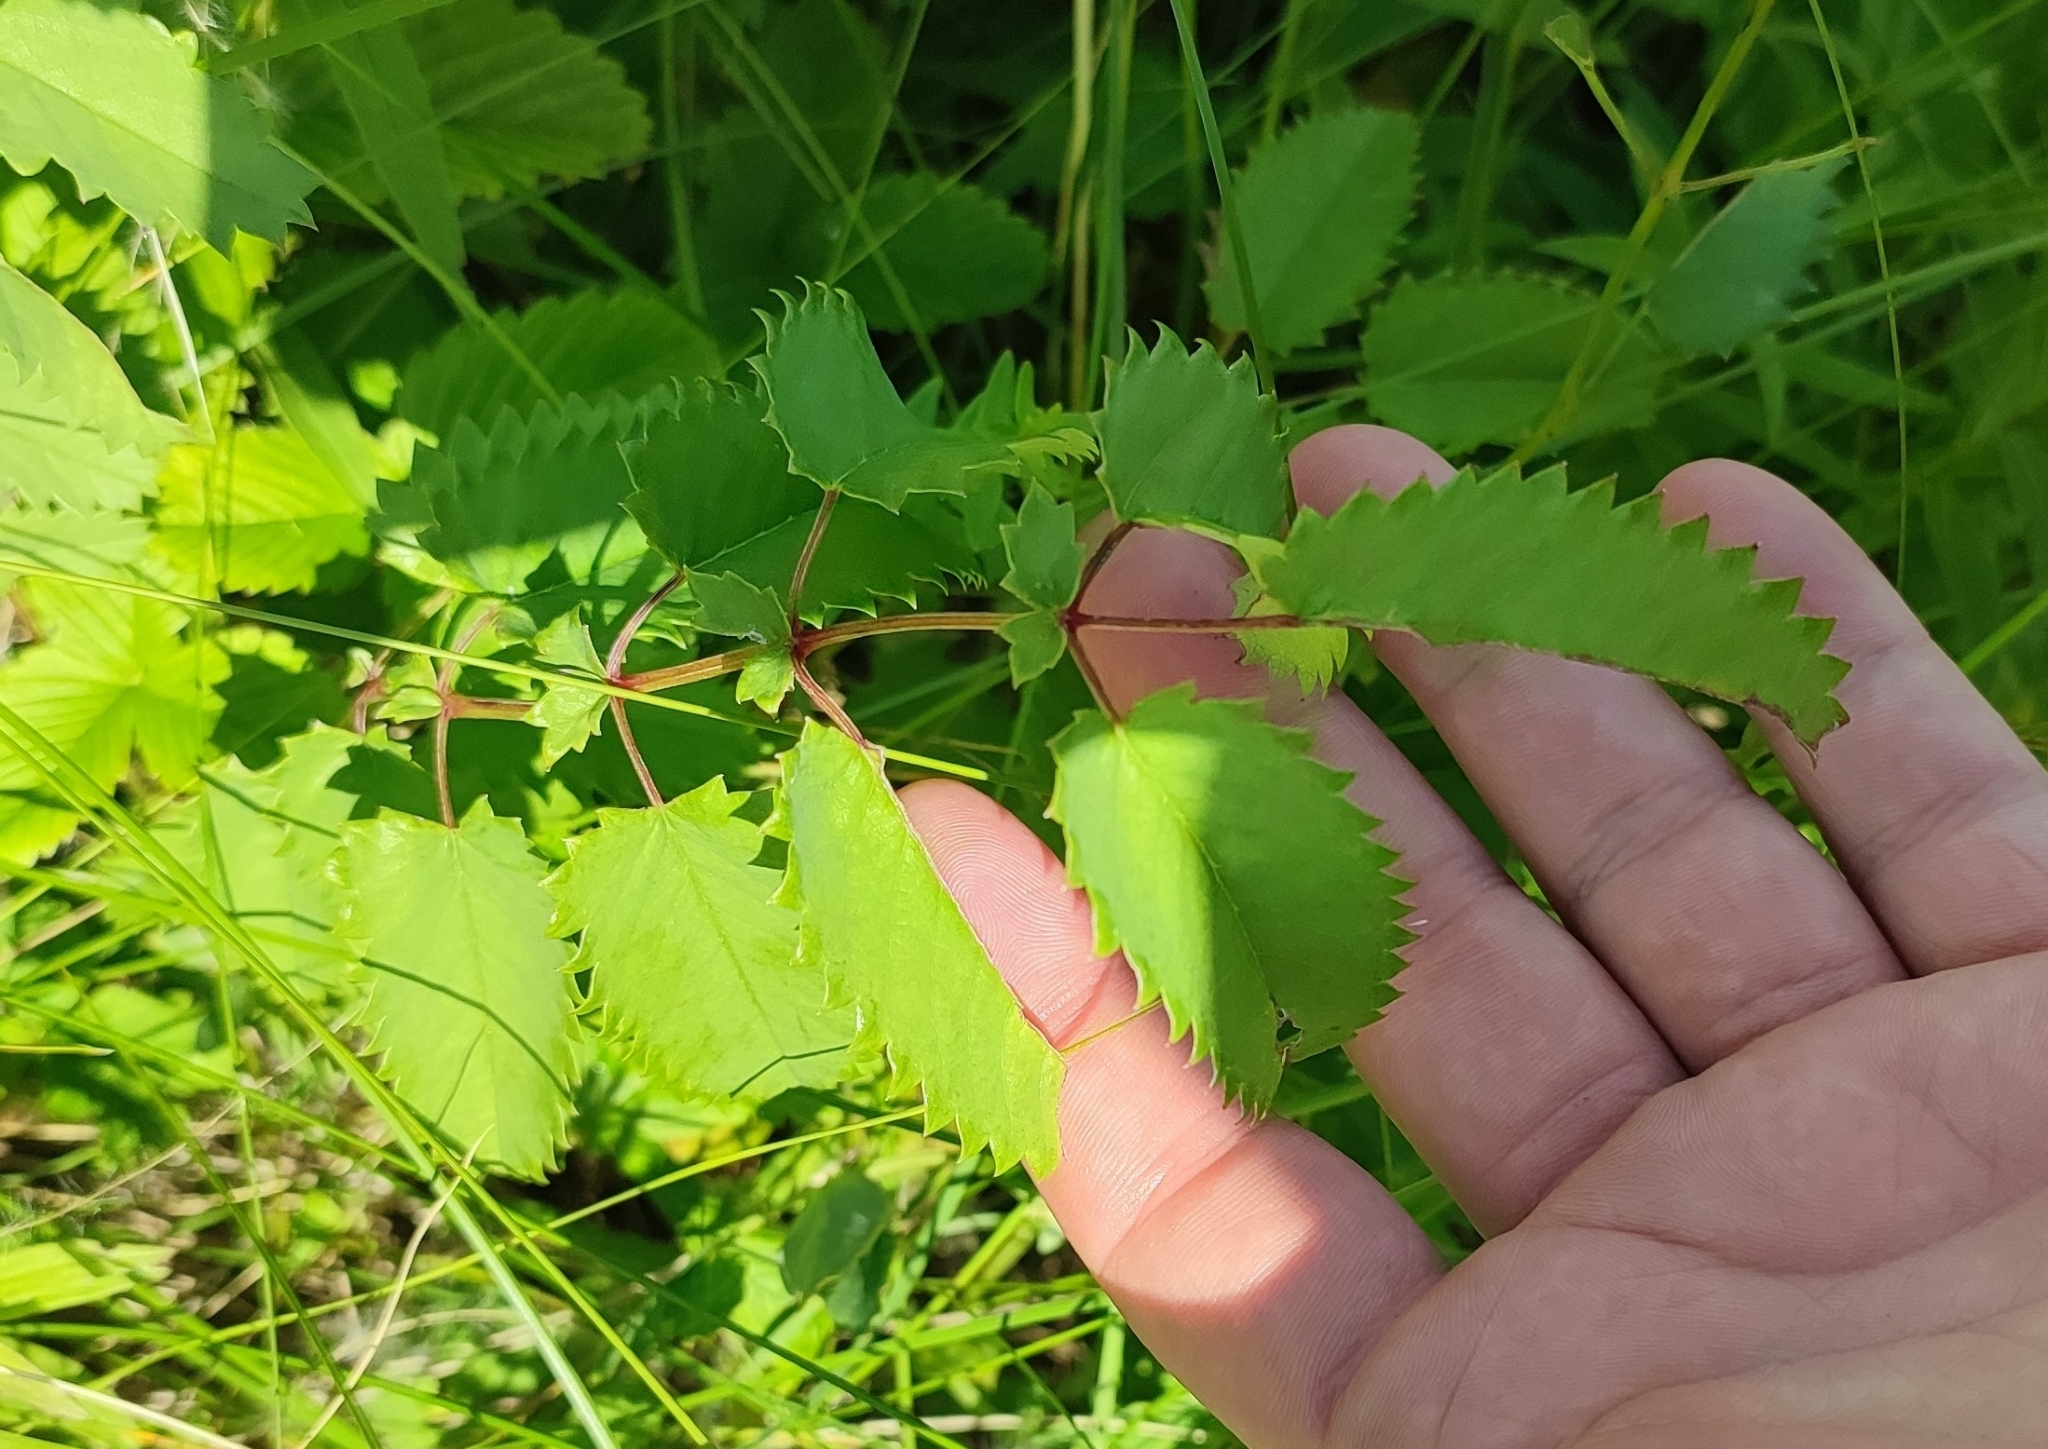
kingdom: Plantae
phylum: Tracheophyta
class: Magnoliopsida
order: Rosales
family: Rosaceae
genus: Sanguisorba
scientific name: Sanguisorba officinalis
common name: Great burnet
